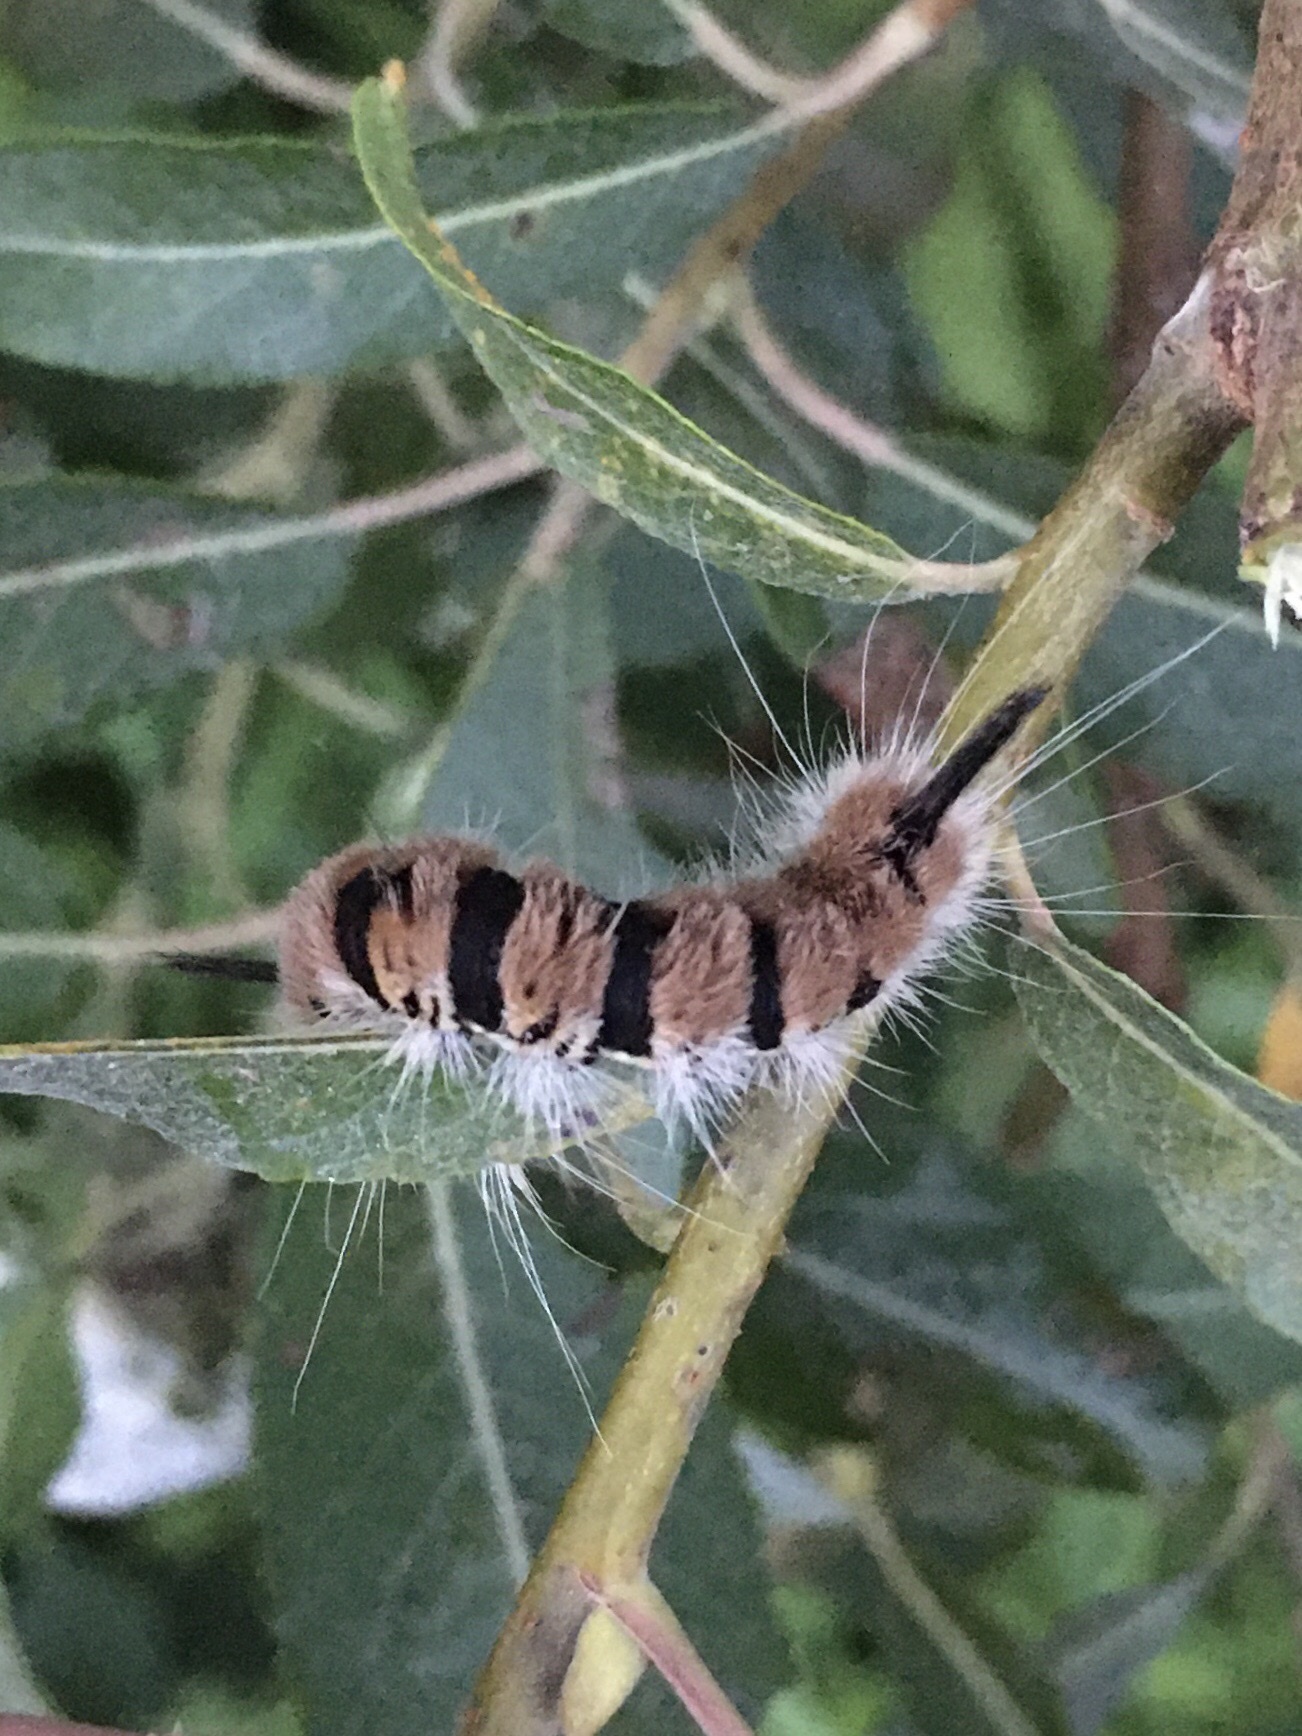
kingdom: Animalia
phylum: Arthropoda
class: Insecta
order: Lepidoptera
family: Noctuidae
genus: Acronicta
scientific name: Acronicta insita
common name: Large gray dagger
